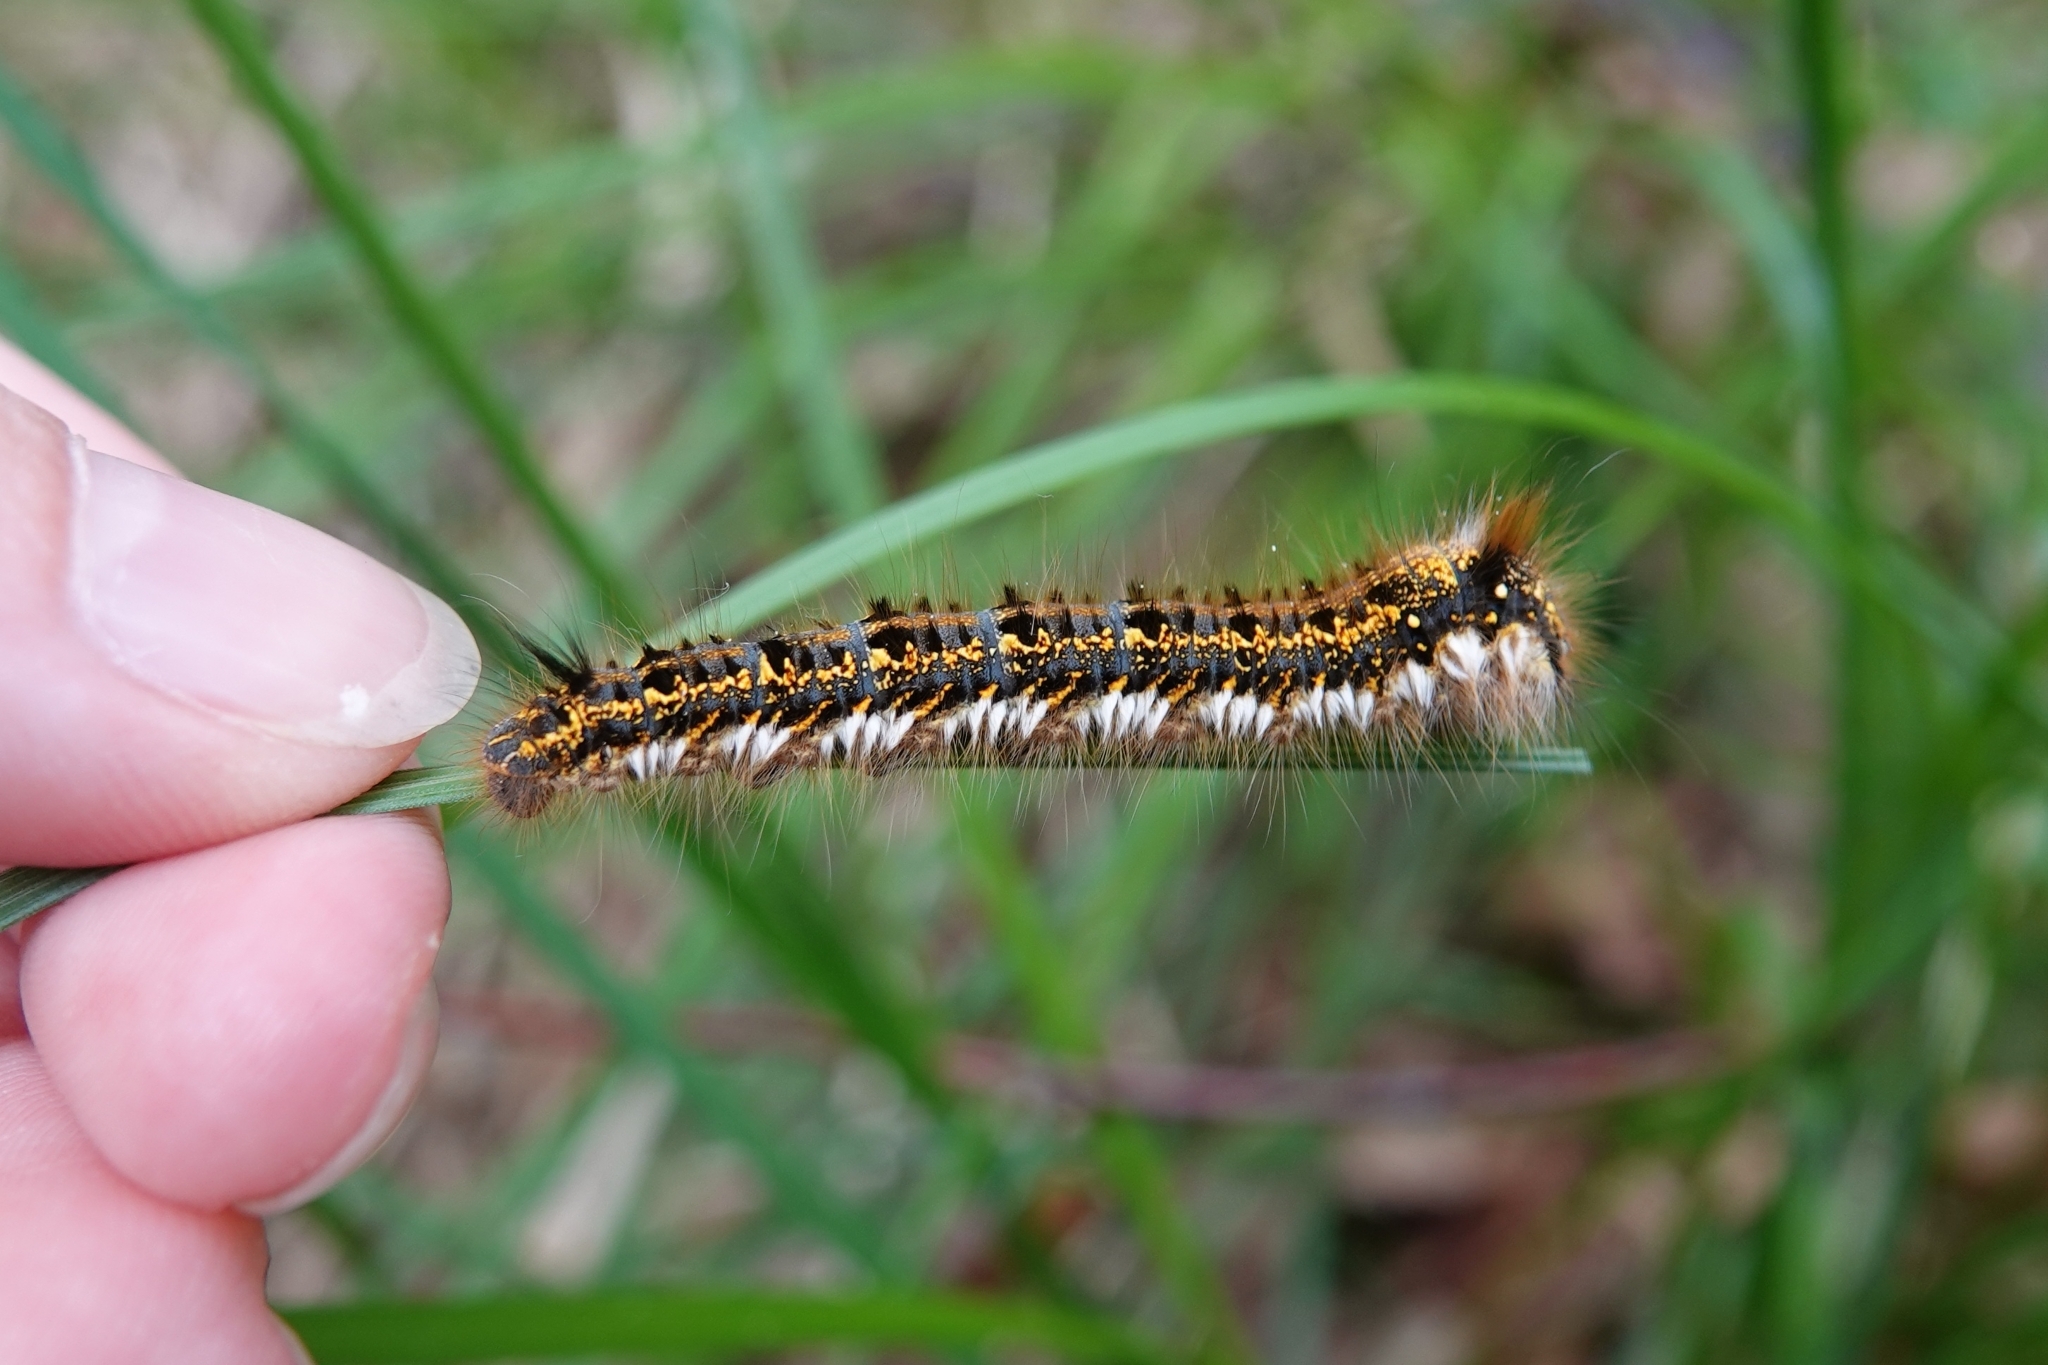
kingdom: Animalia
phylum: Arthropoda
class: Insecta
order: Lepidoptera
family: Lasiocampidae
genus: Euthrix
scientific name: Euthrix potatoria
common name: Drinker
